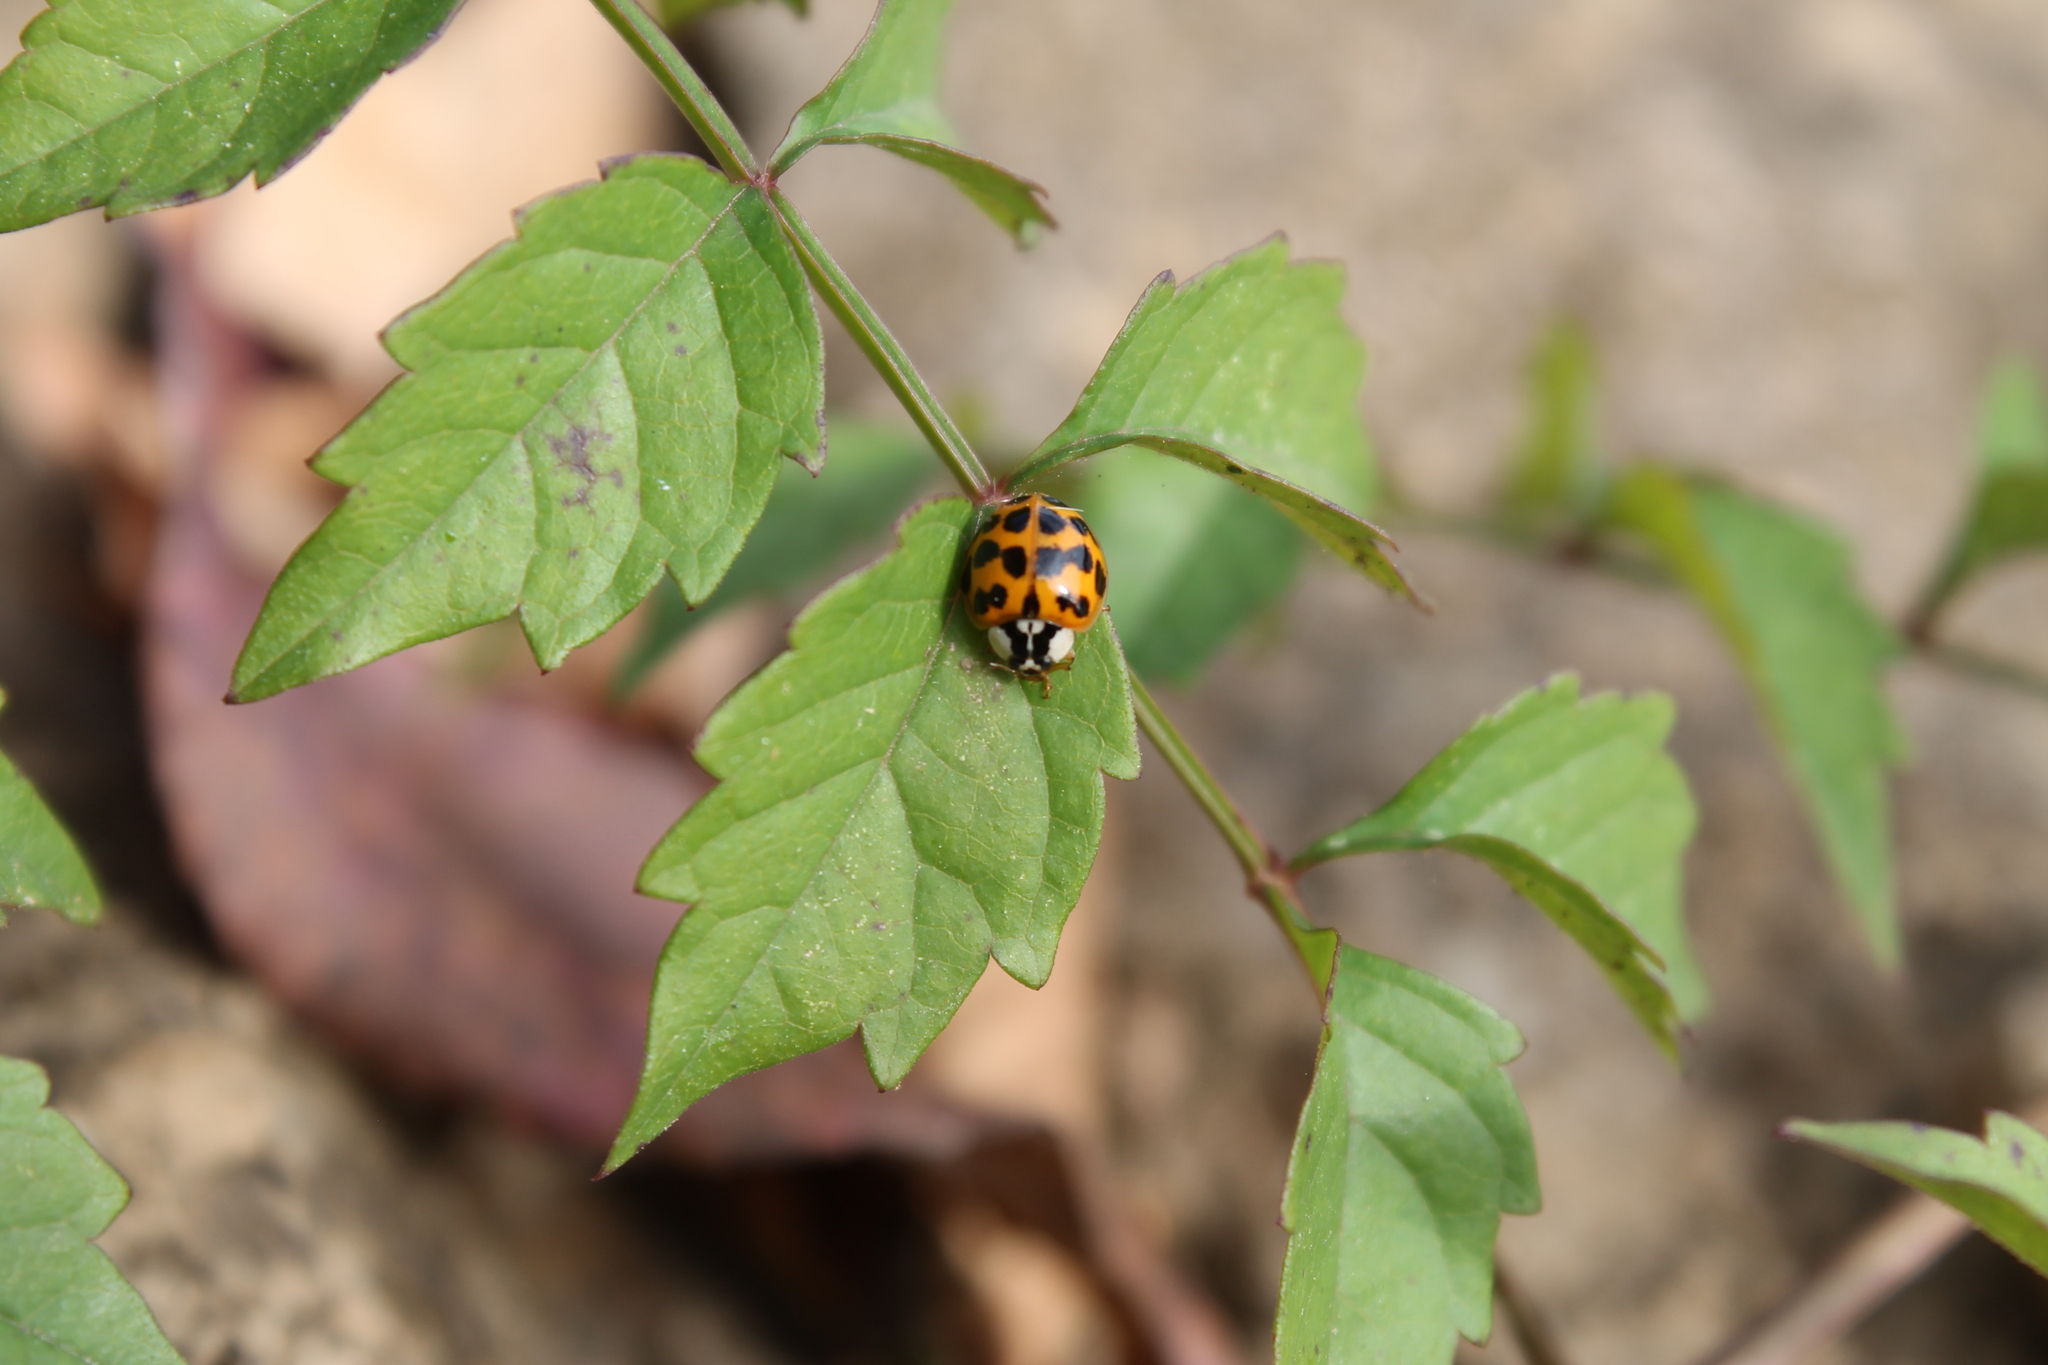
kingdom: Animalia
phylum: Arthropoda
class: Insecta
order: Coleoptera
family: Coccinellidae
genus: Harmonia
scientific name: Harmonia axyridis
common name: Harlequin ladybird
